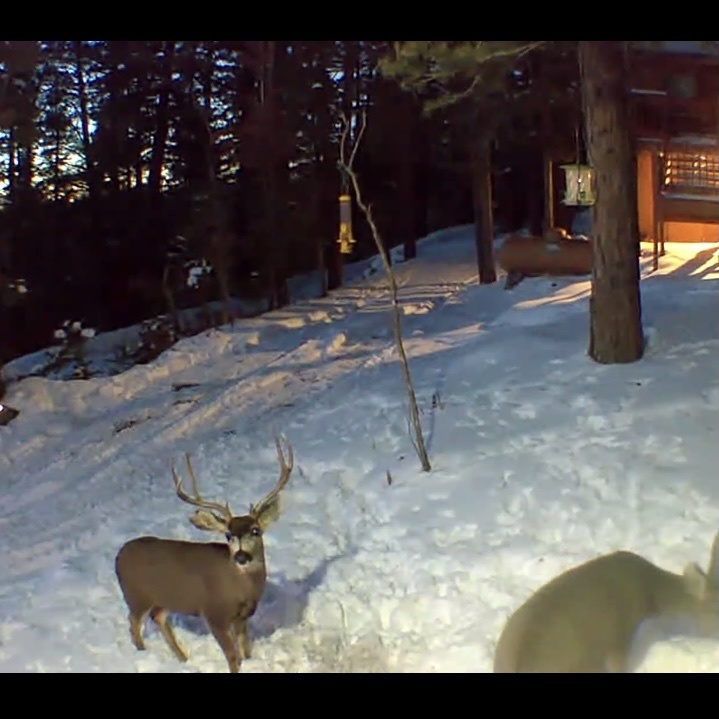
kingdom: Animalia
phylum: Chordata
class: Mammalia
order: Artiodactyla
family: Cervidae
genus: Odocoileus
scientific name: Odocoileus hemionus
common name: Mule deer
